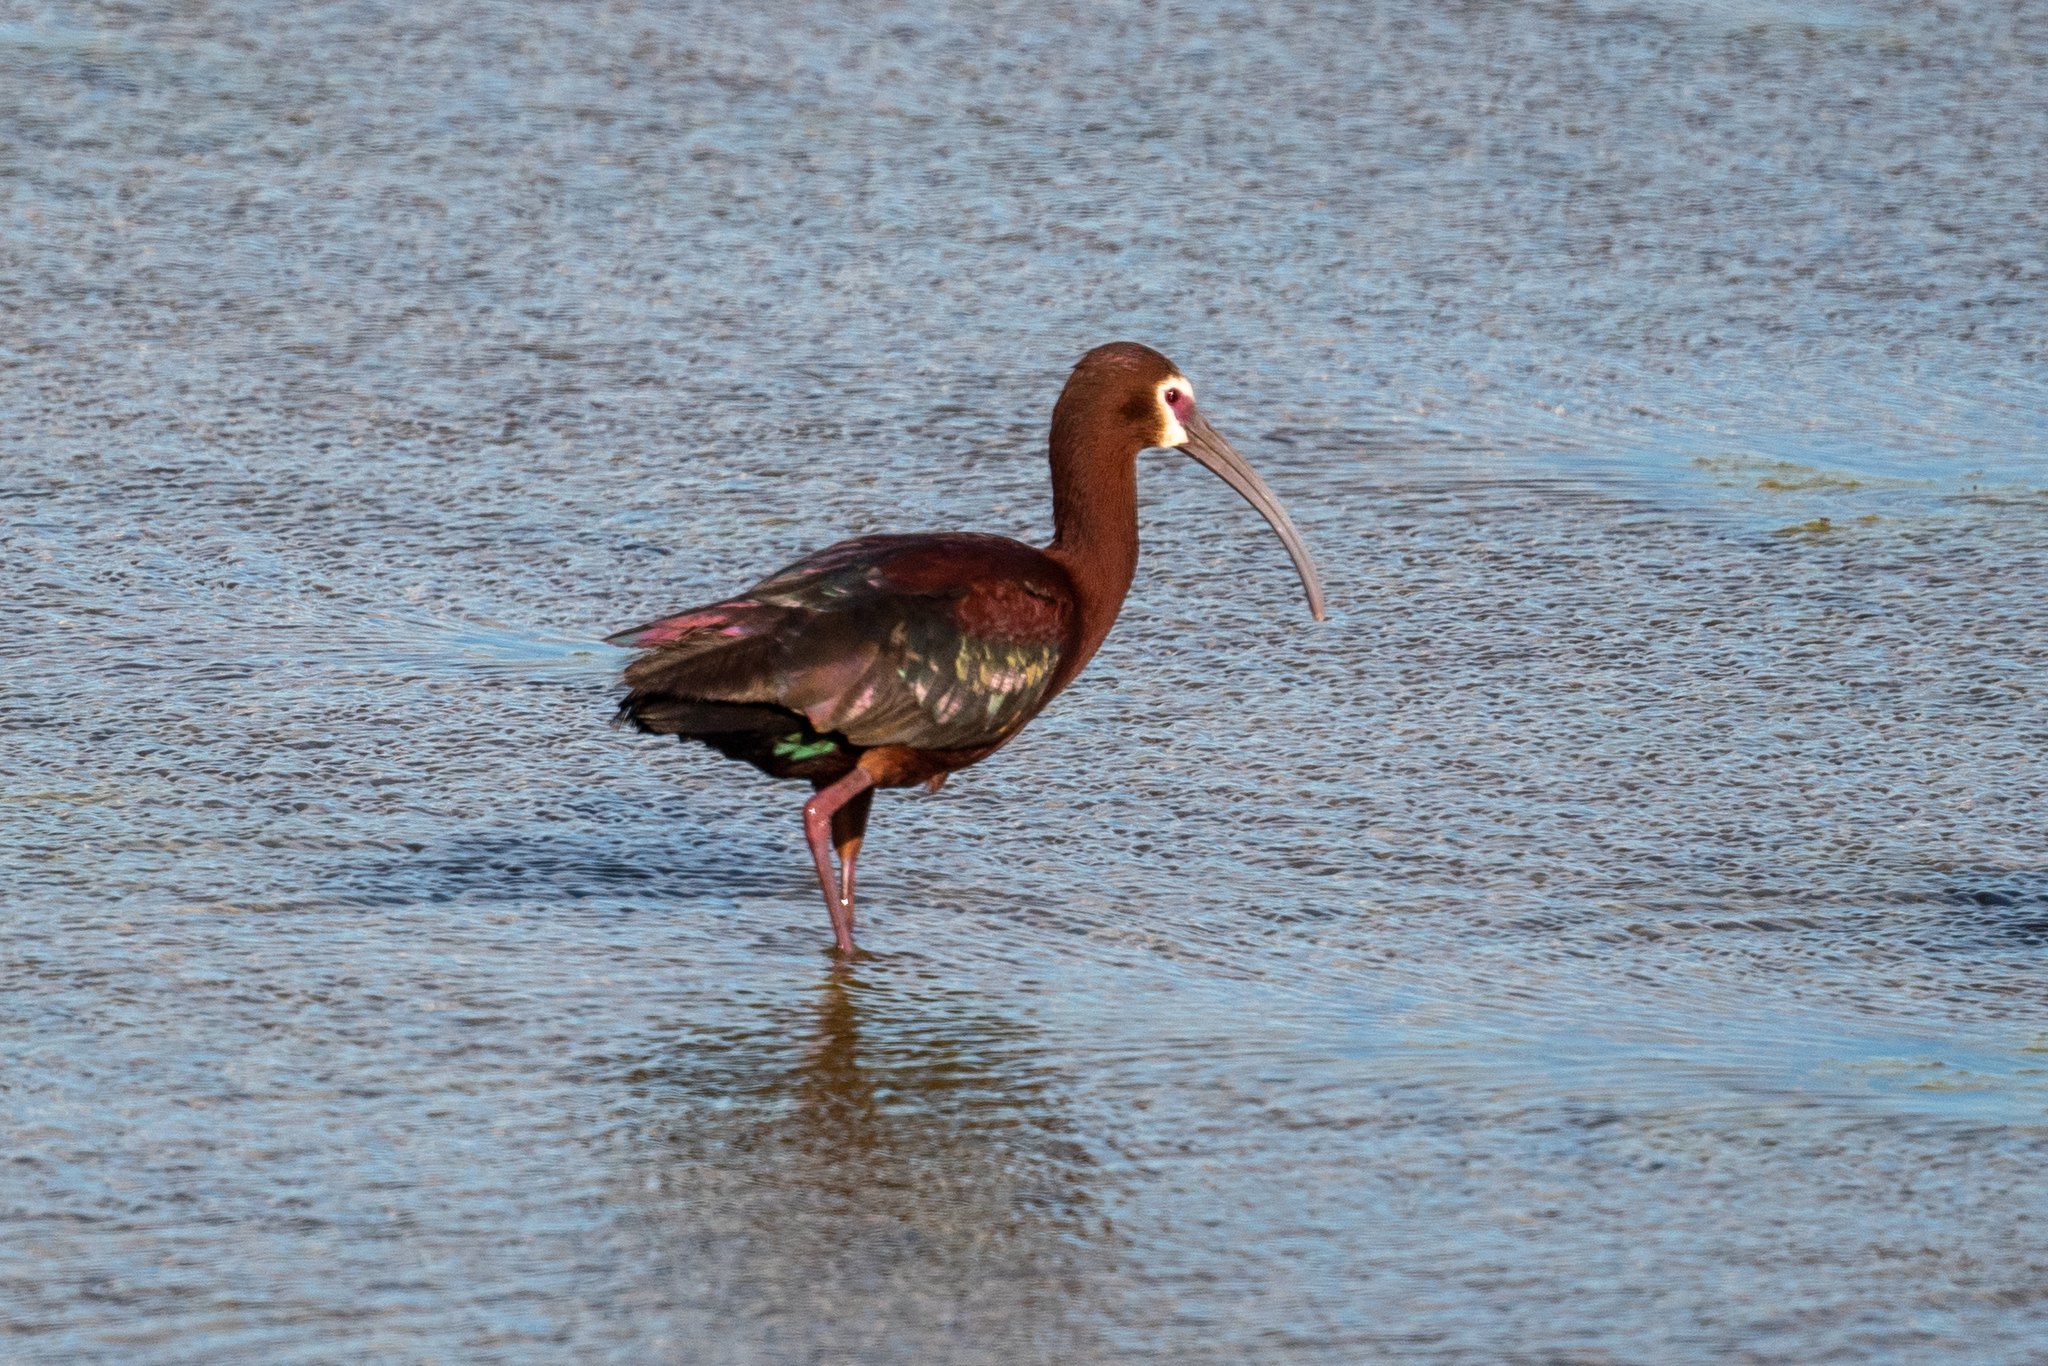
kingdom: Animalia
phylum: Chordata
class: Aves
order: Pelecaniformes
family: Threskiornithidae
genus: Plegadis
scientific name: Plegadis chihi
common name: White-faced ibis
